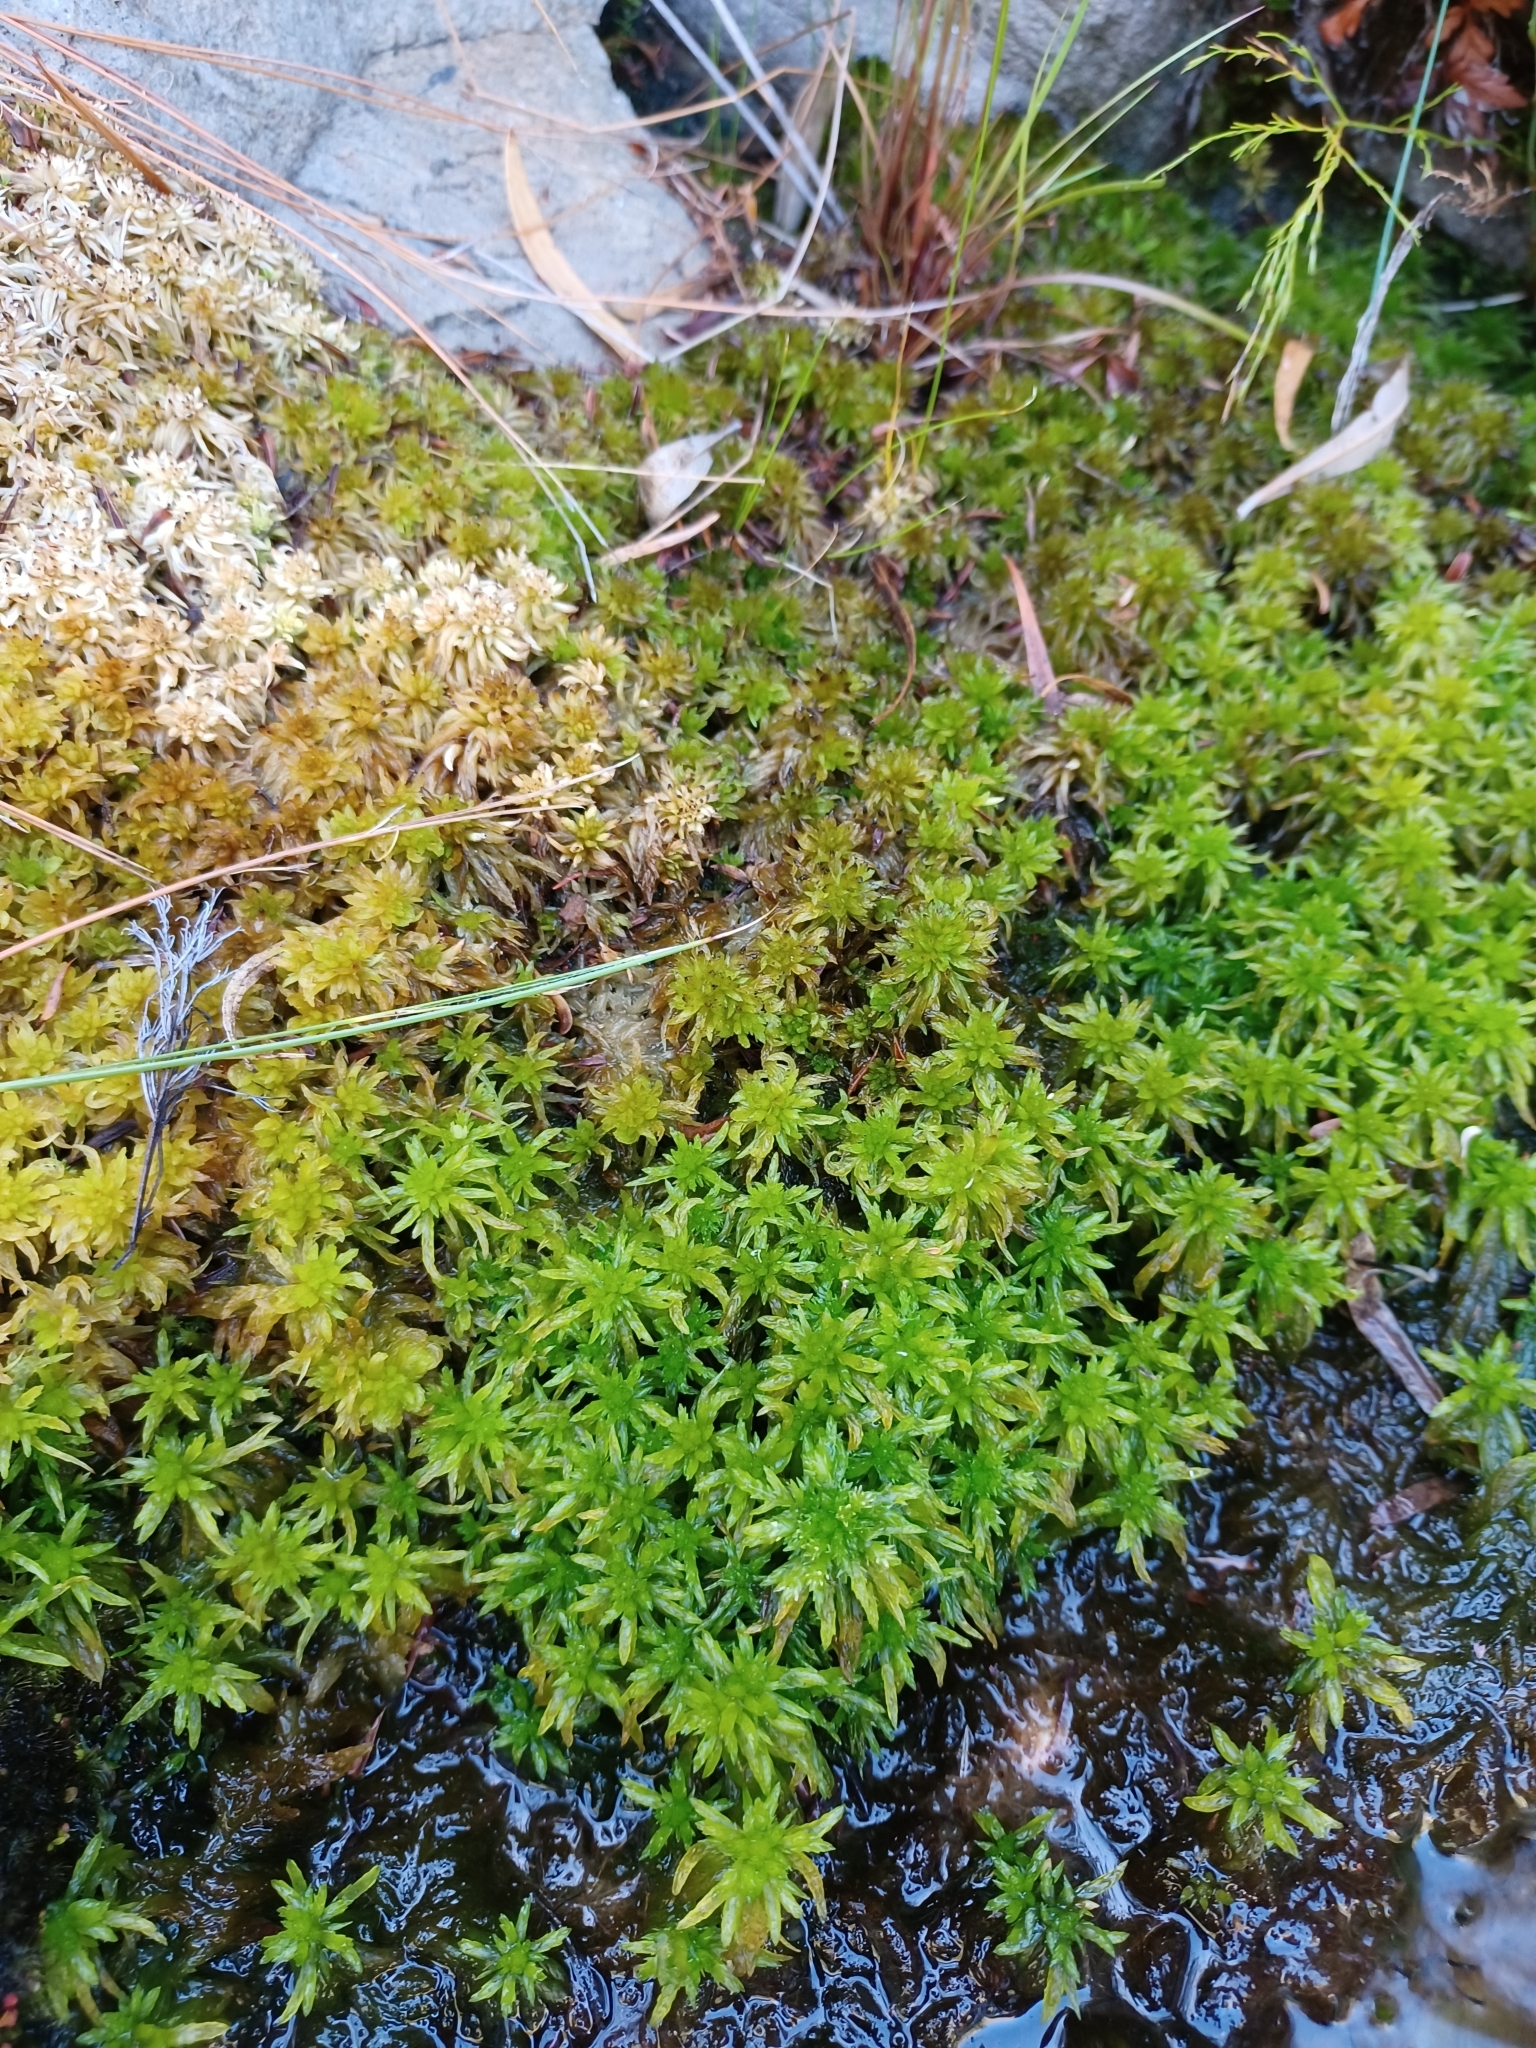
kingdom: Plantae
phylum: Bryophyta
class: Sphagnopsida
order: Sphagnales
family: Sphagnaceae
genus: Sphagnum
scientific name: Sphagnum truncatum
